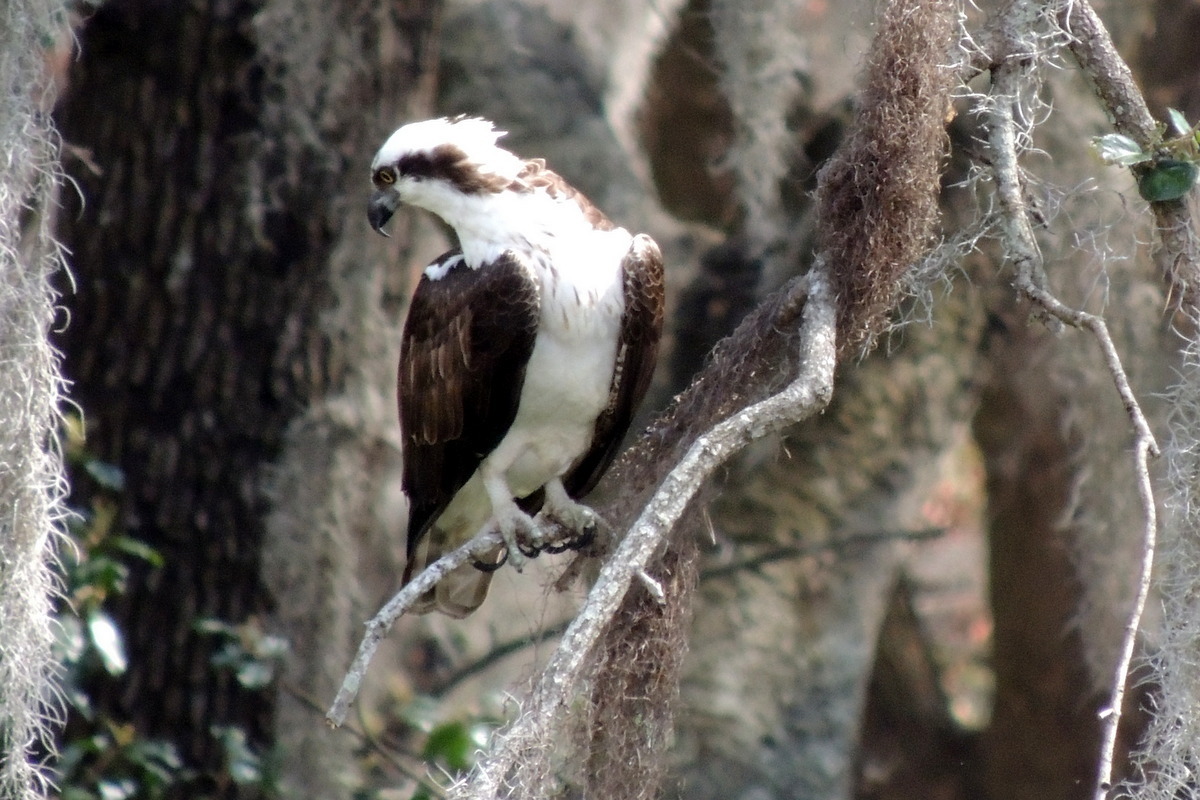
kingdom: Animalia
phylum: Chordata
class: Aves
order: Accipitriformes
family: Pandionidae
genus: Pandion
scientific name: Pandion haliaetus
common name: Osprey
